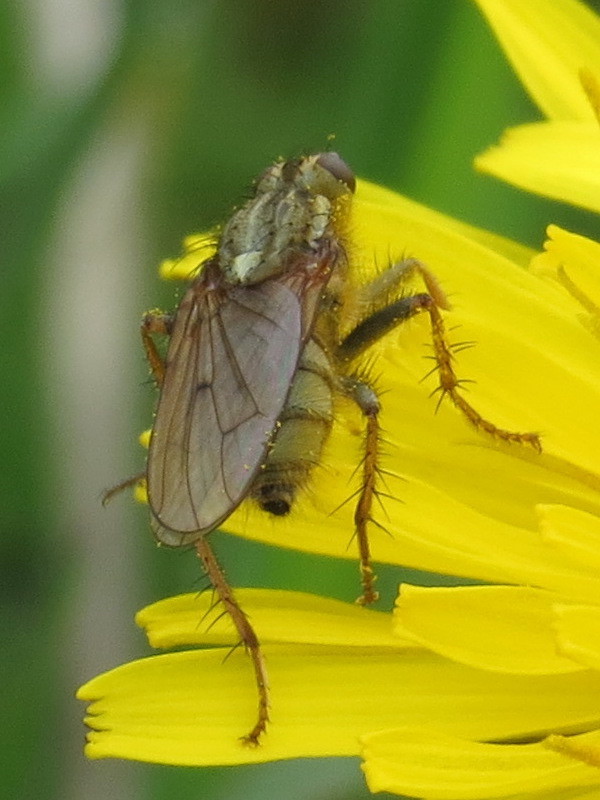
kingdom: Animalia
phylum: Arthropoda
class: Insecta
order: Diptera
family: Scathophagidae
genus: Scathophaga
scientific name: Scathophaga stercoraria
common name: Yellow dung fly
